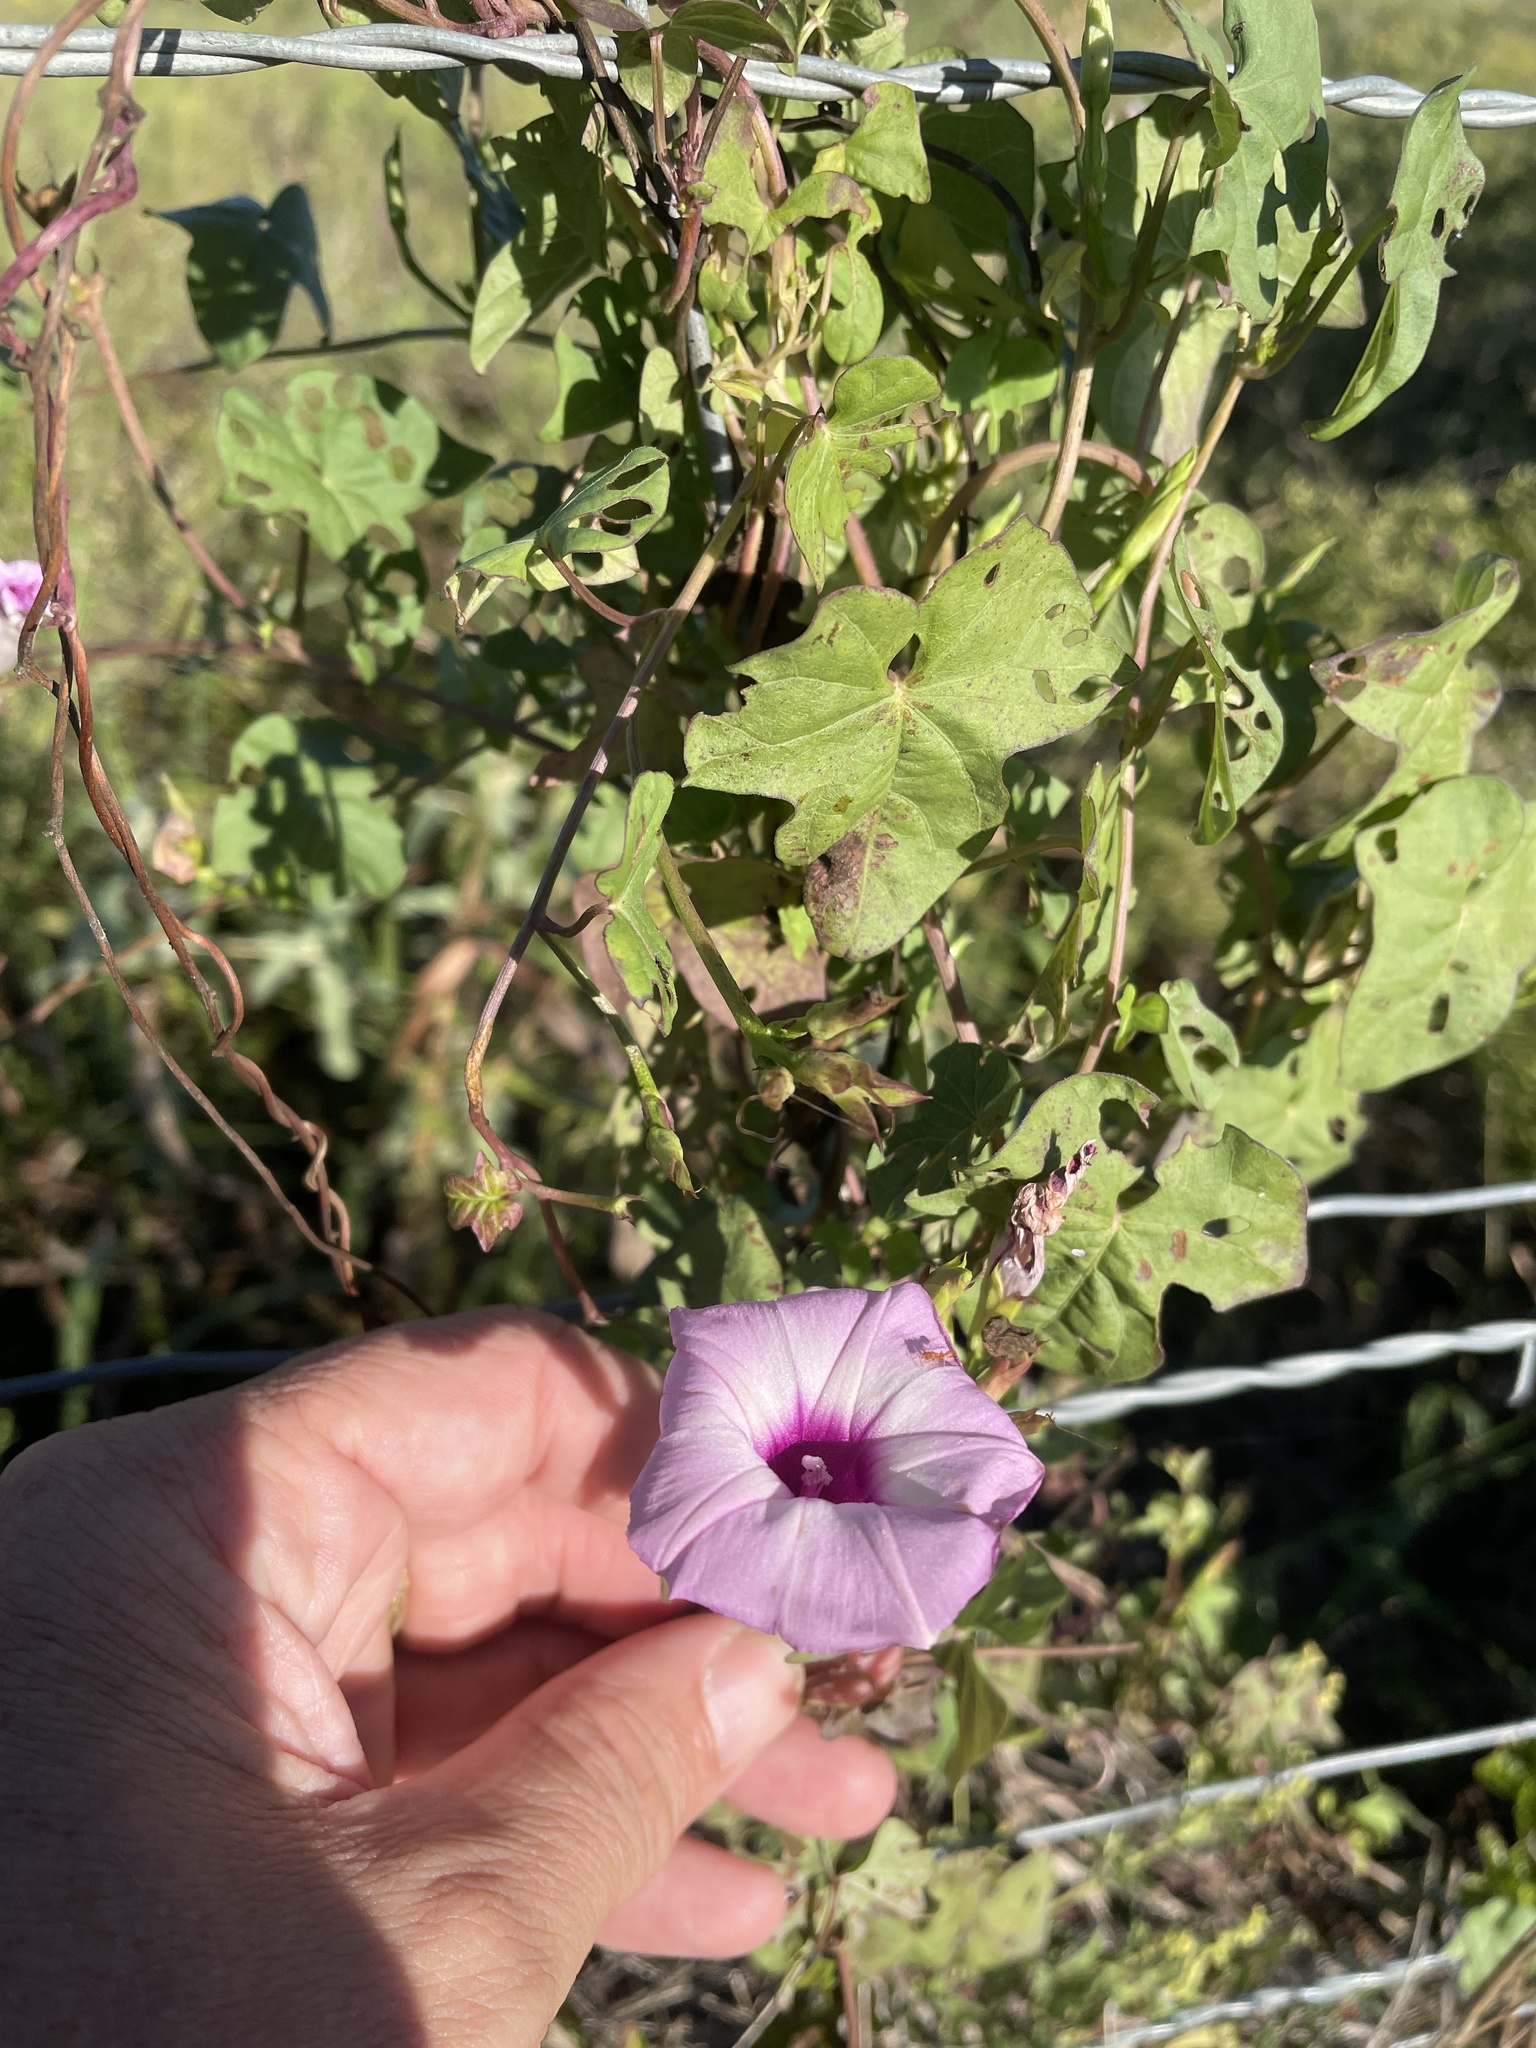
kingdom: Plantae
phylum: Tracheophyta
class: Magnoliopsida
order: Solanales
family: Convolvulaceae
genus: Ipomoea
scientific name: Ipomoea cordatotriloba
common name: Cotton morning glory
